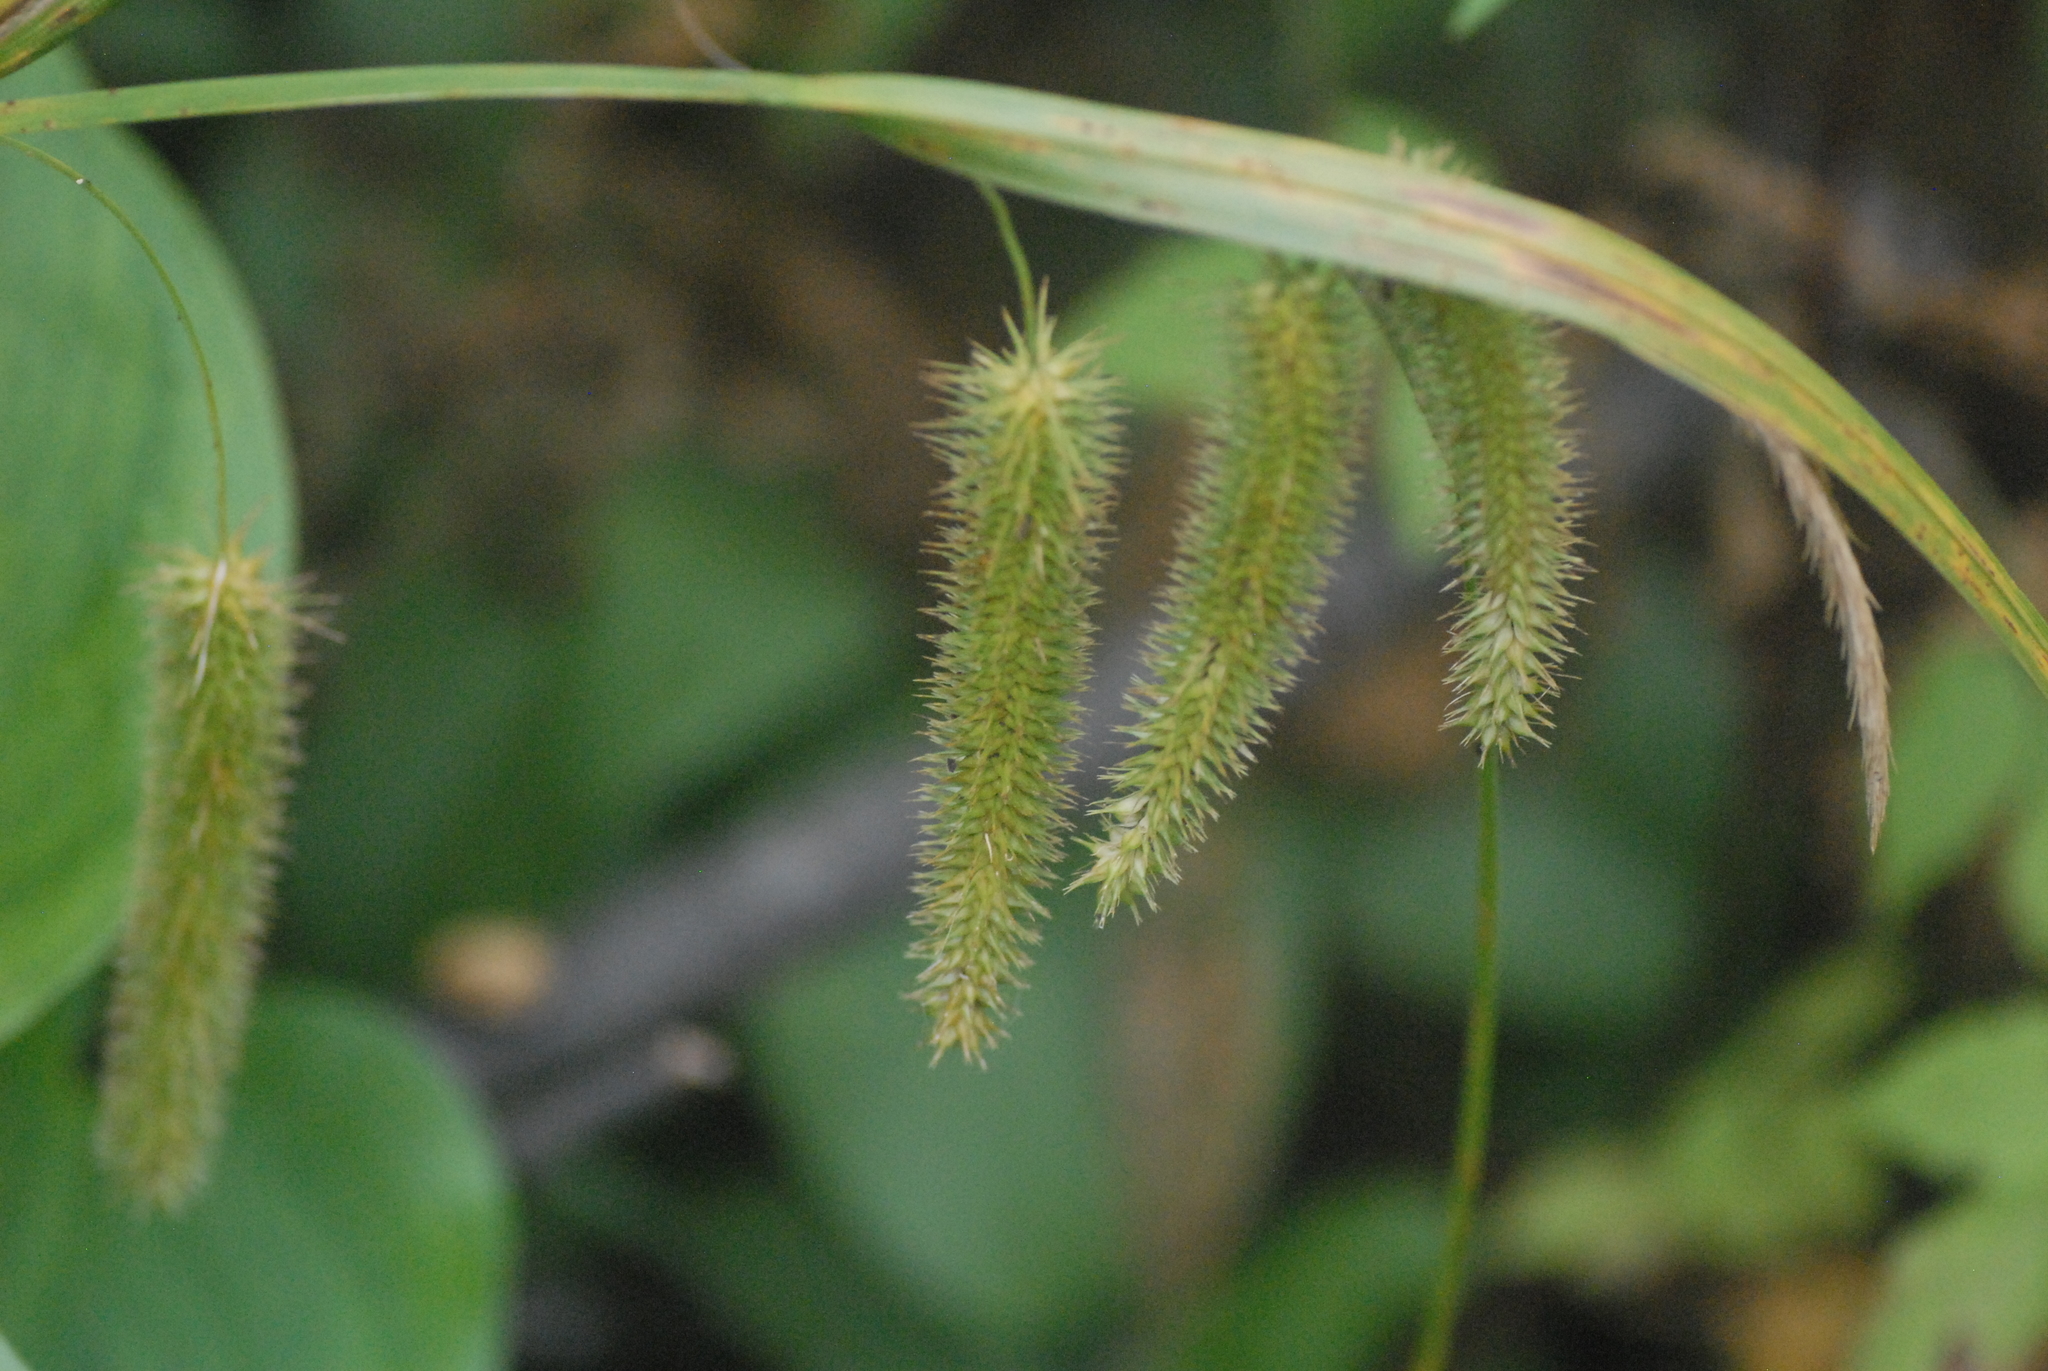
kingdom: Plantae
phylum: Tracheophyta
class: Liliopsida
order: Poales
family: Cyperaceae
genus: Carex
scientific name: Carex pseudocyperus
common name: Cyperus sedge
